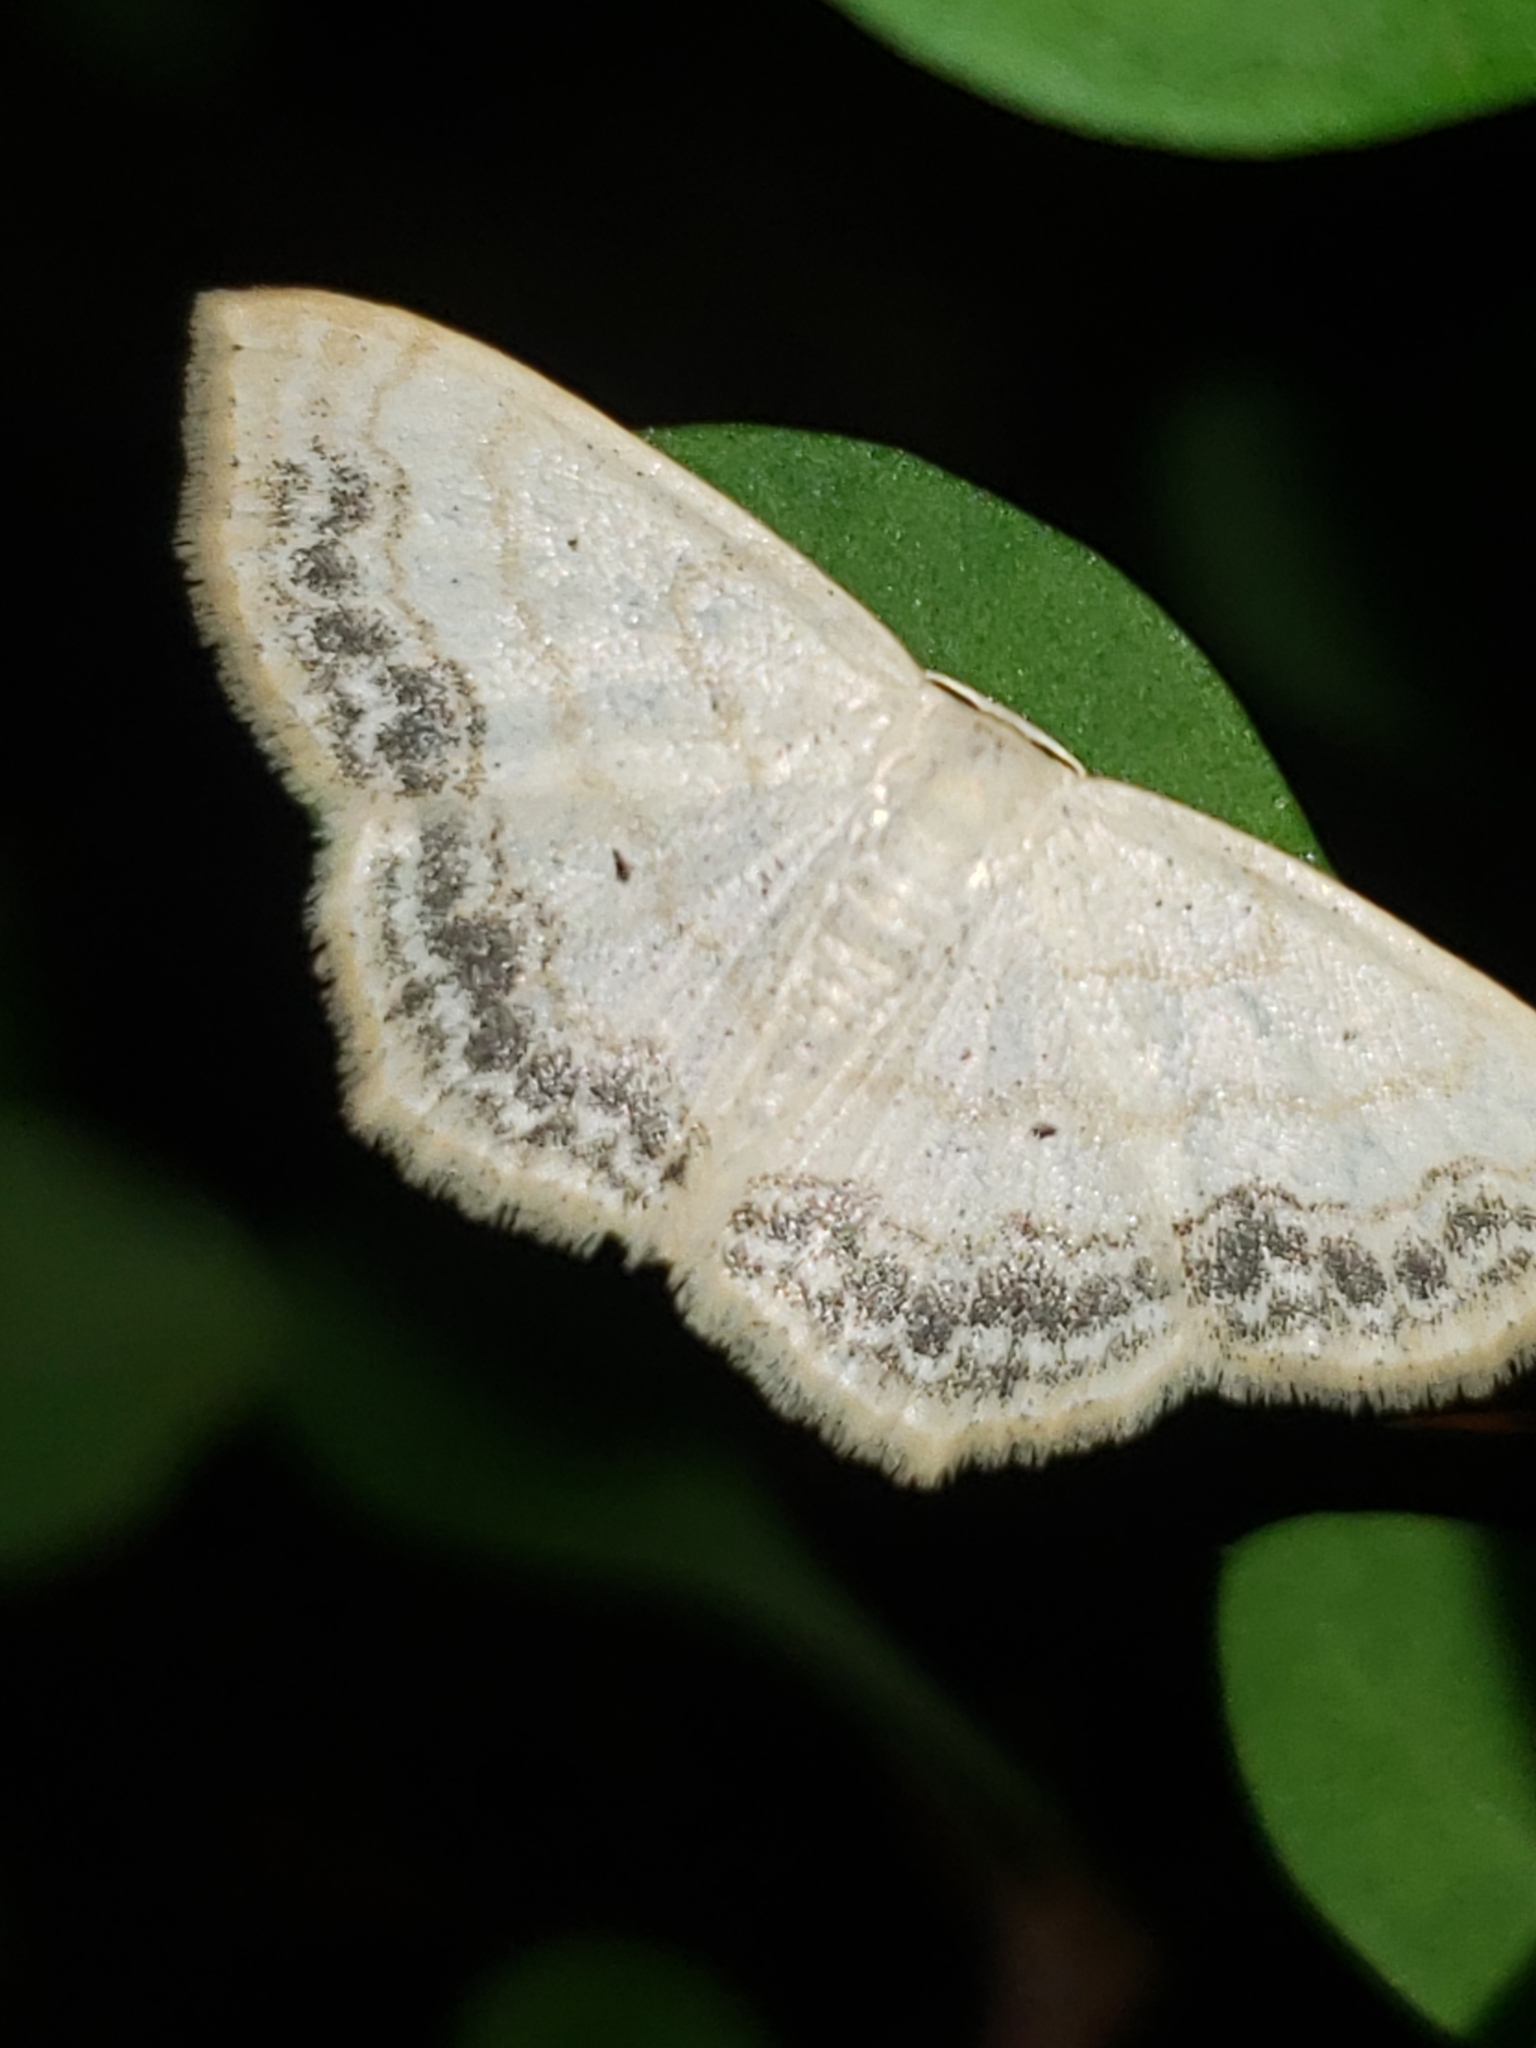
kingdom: Animalia
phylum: Arthropoda
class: Insecta
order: Lepidoptera
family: Geometridae
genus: Scopula
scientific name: Scopula limboundata
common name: Large lace border
